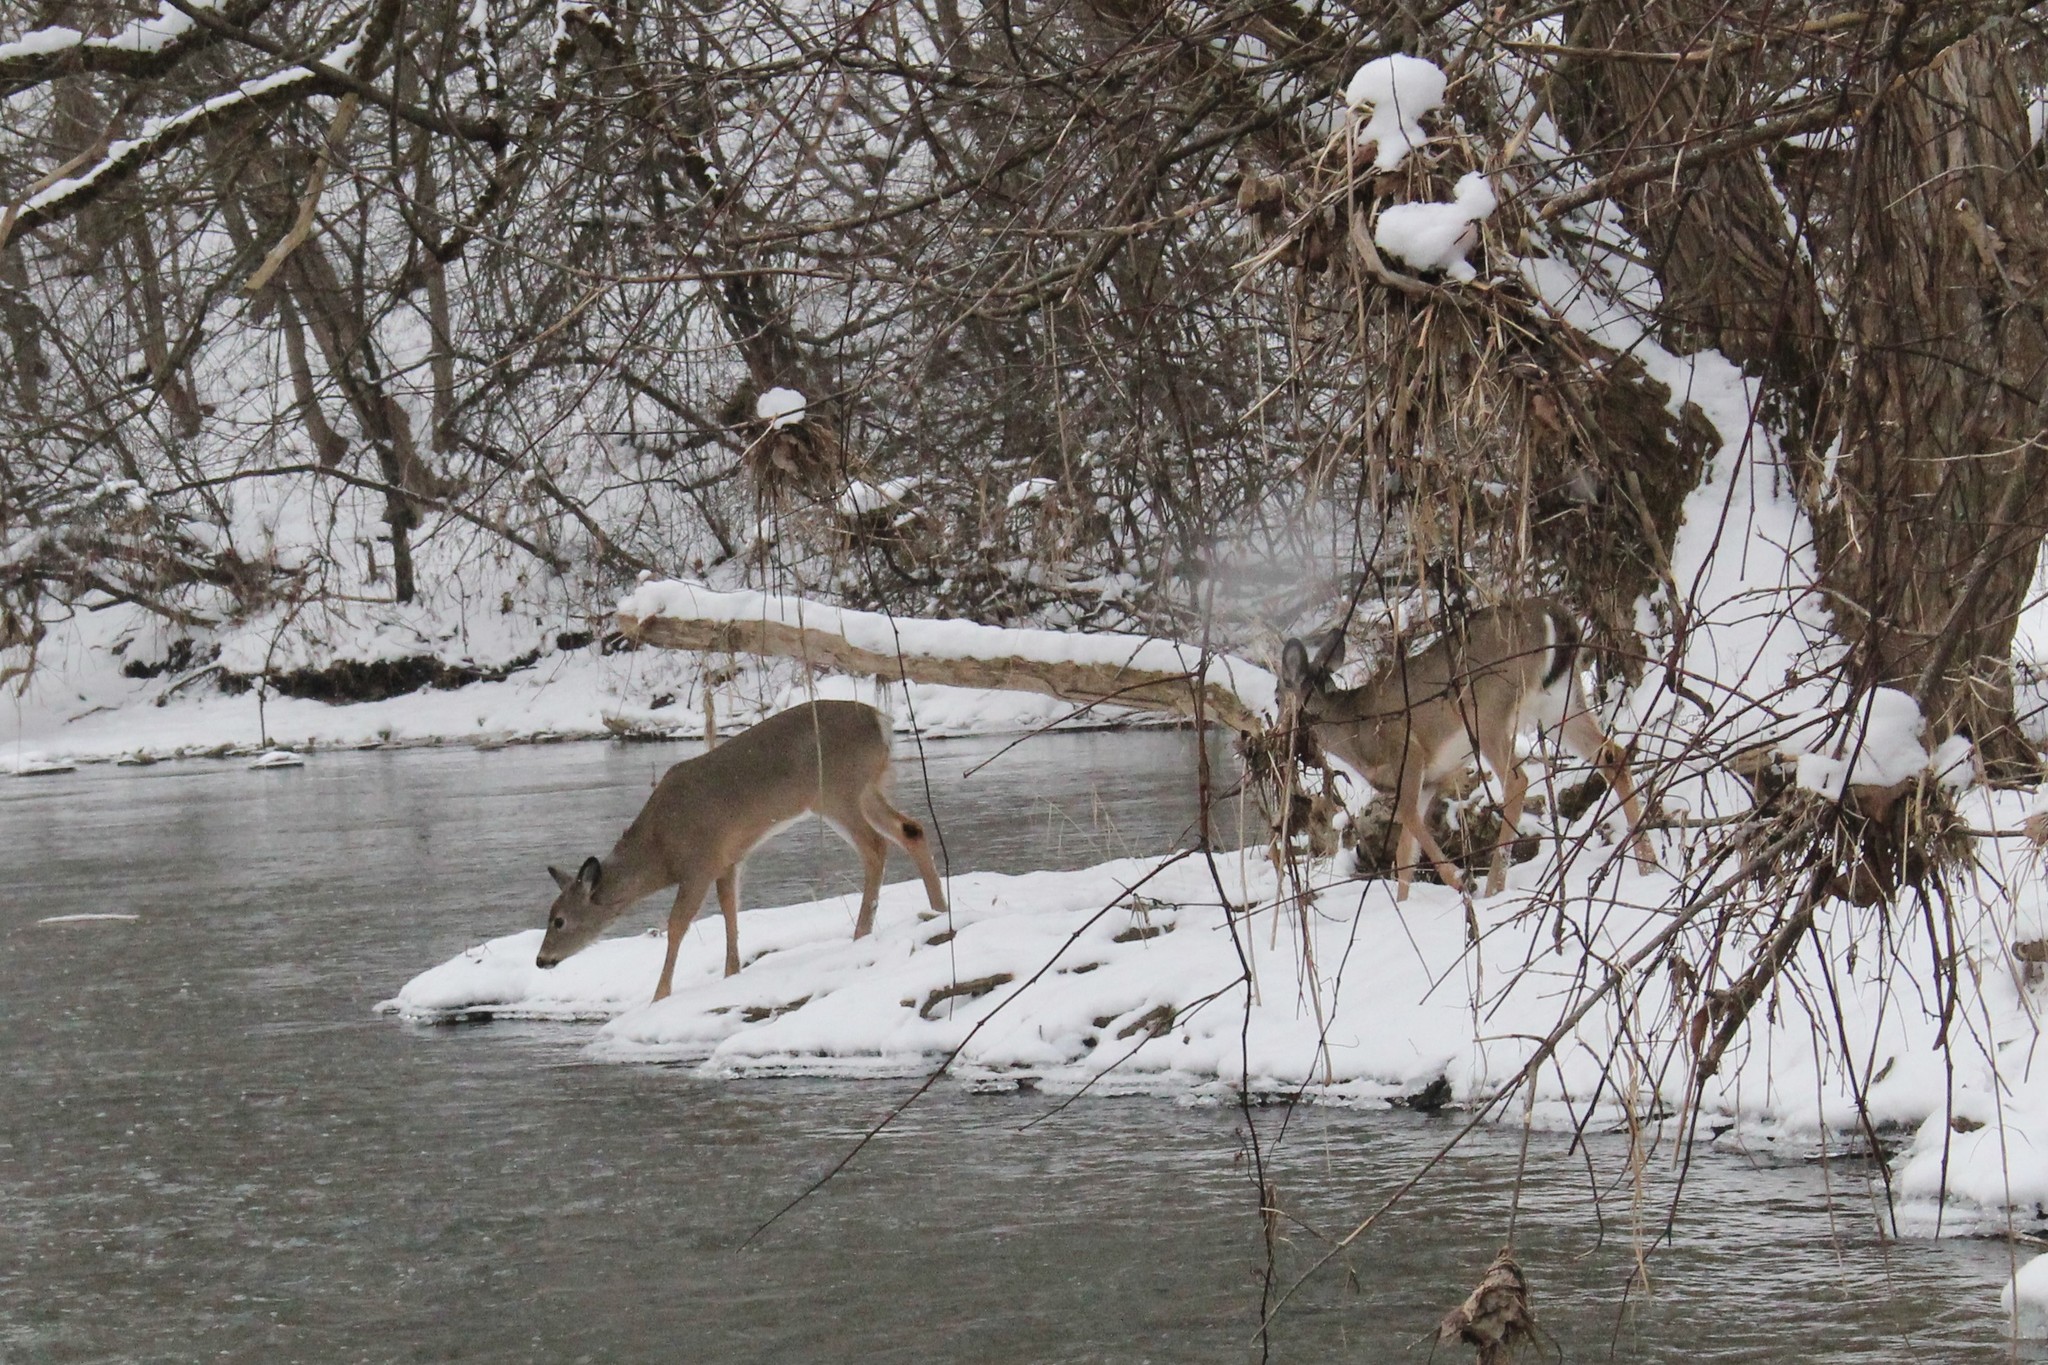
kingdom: Animalia
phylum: Chordata
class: Mammalia
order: Artiodactyla
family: Cervidae
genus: Odocoileus
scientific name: Odocoileus virginianus
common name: White-tailed deer
